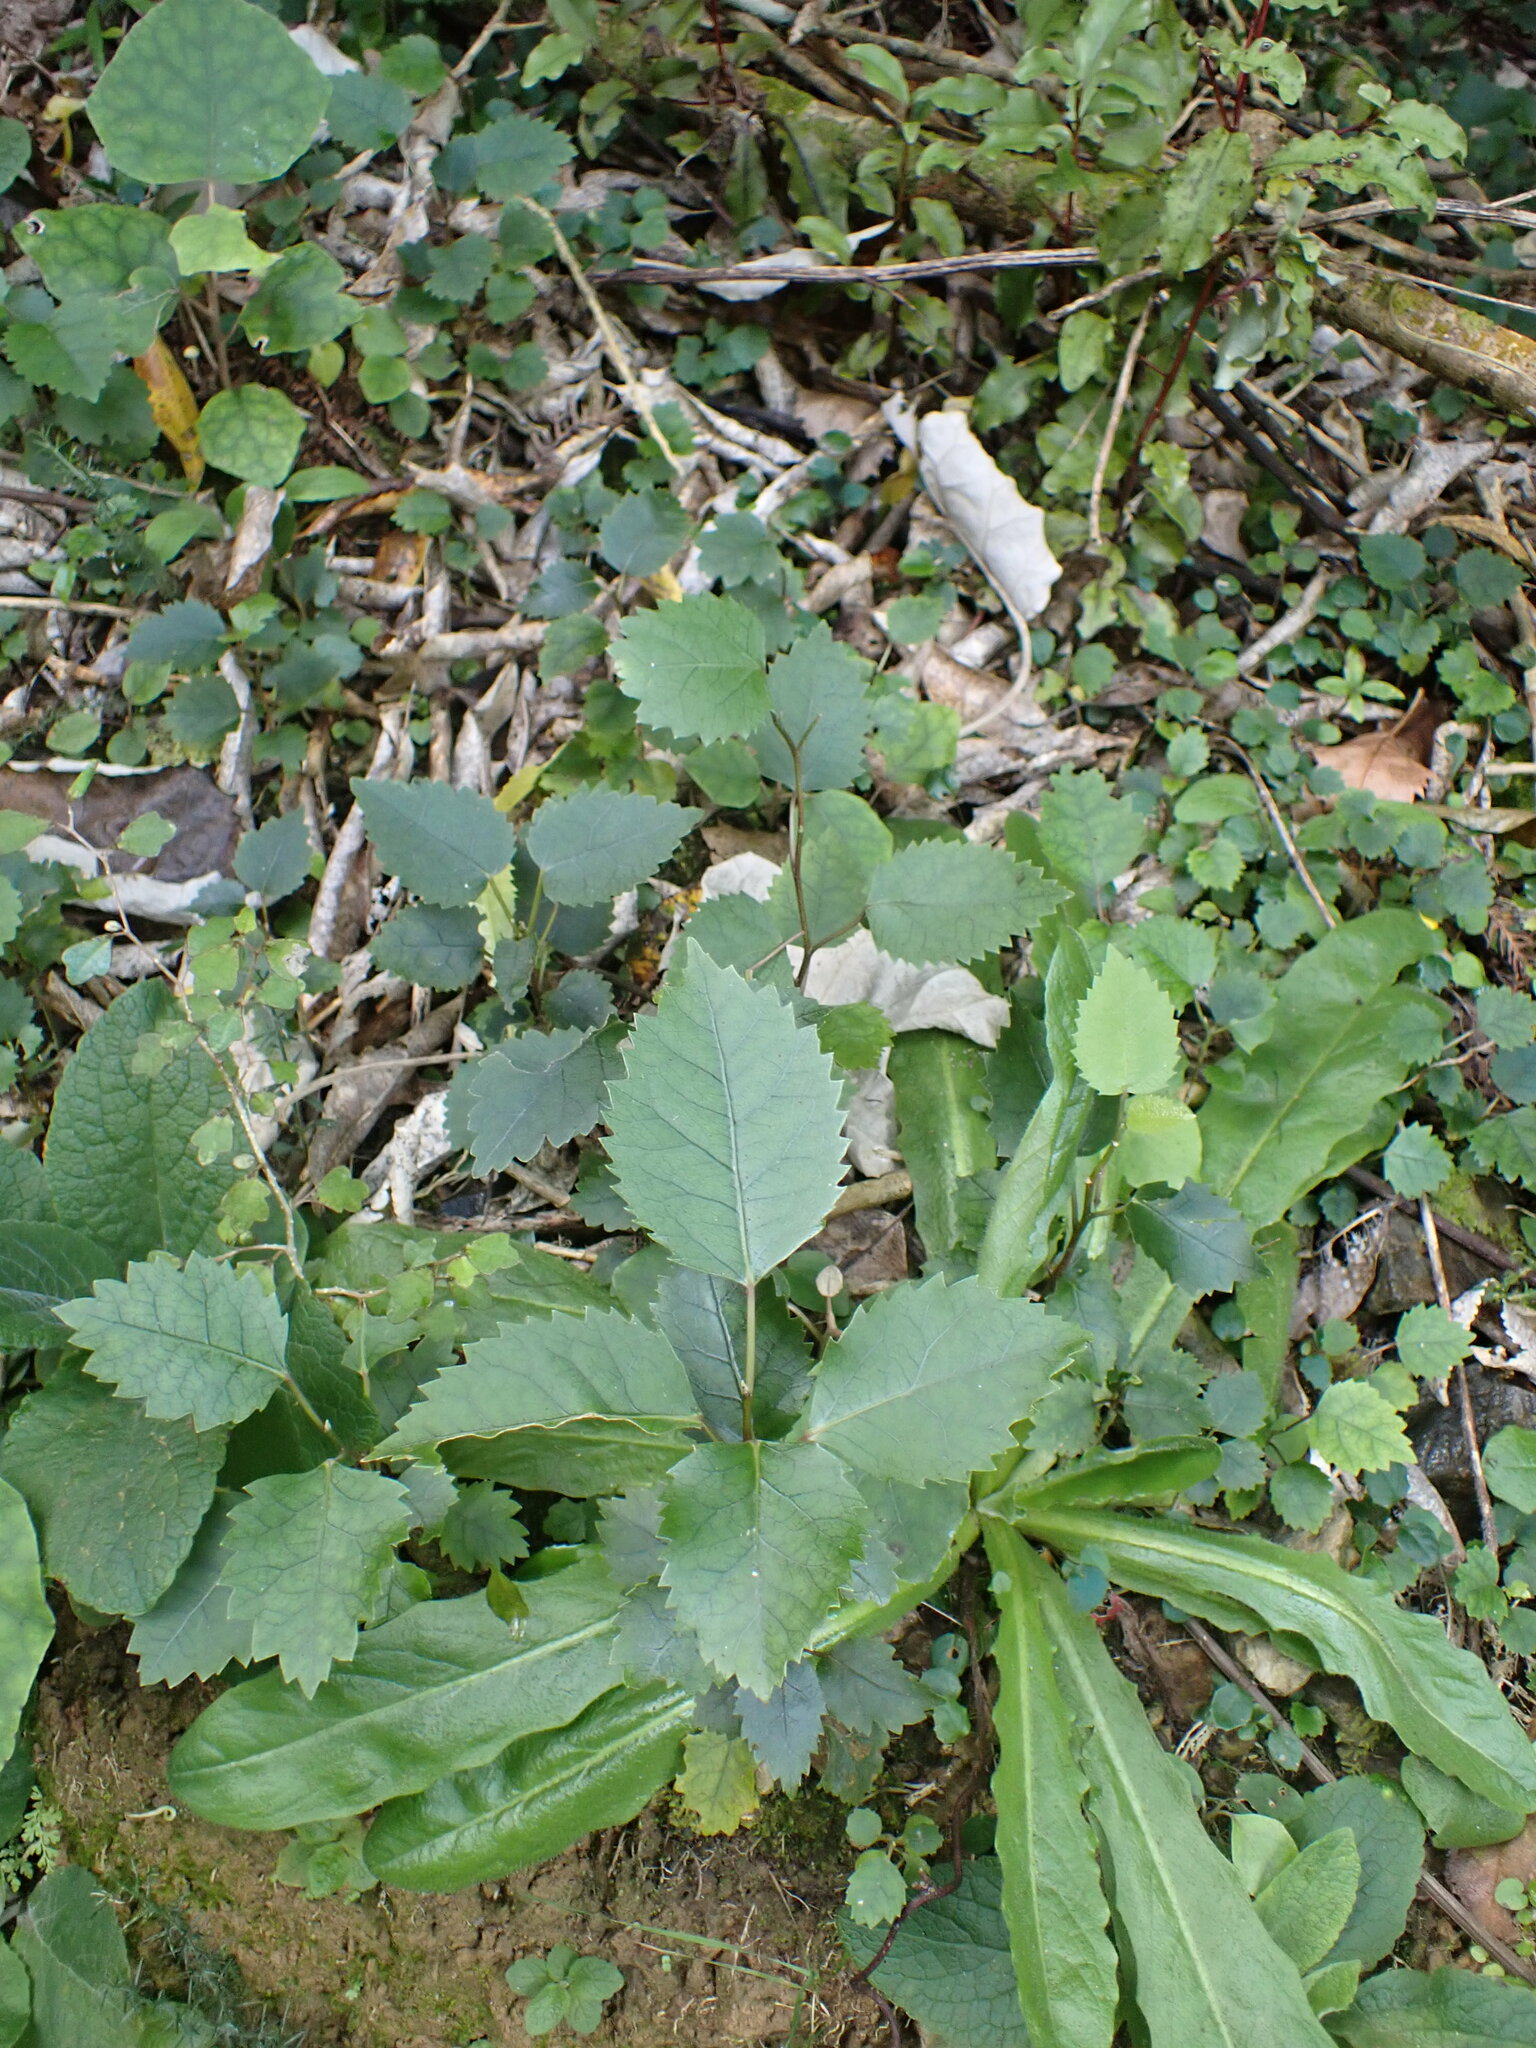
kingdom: Plantae
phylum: Tracheophyta
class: Magnoliopsida
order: Malvales
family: Malvaceae
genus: Hoheria
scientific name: Hoheria populnea
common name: Lacebark
